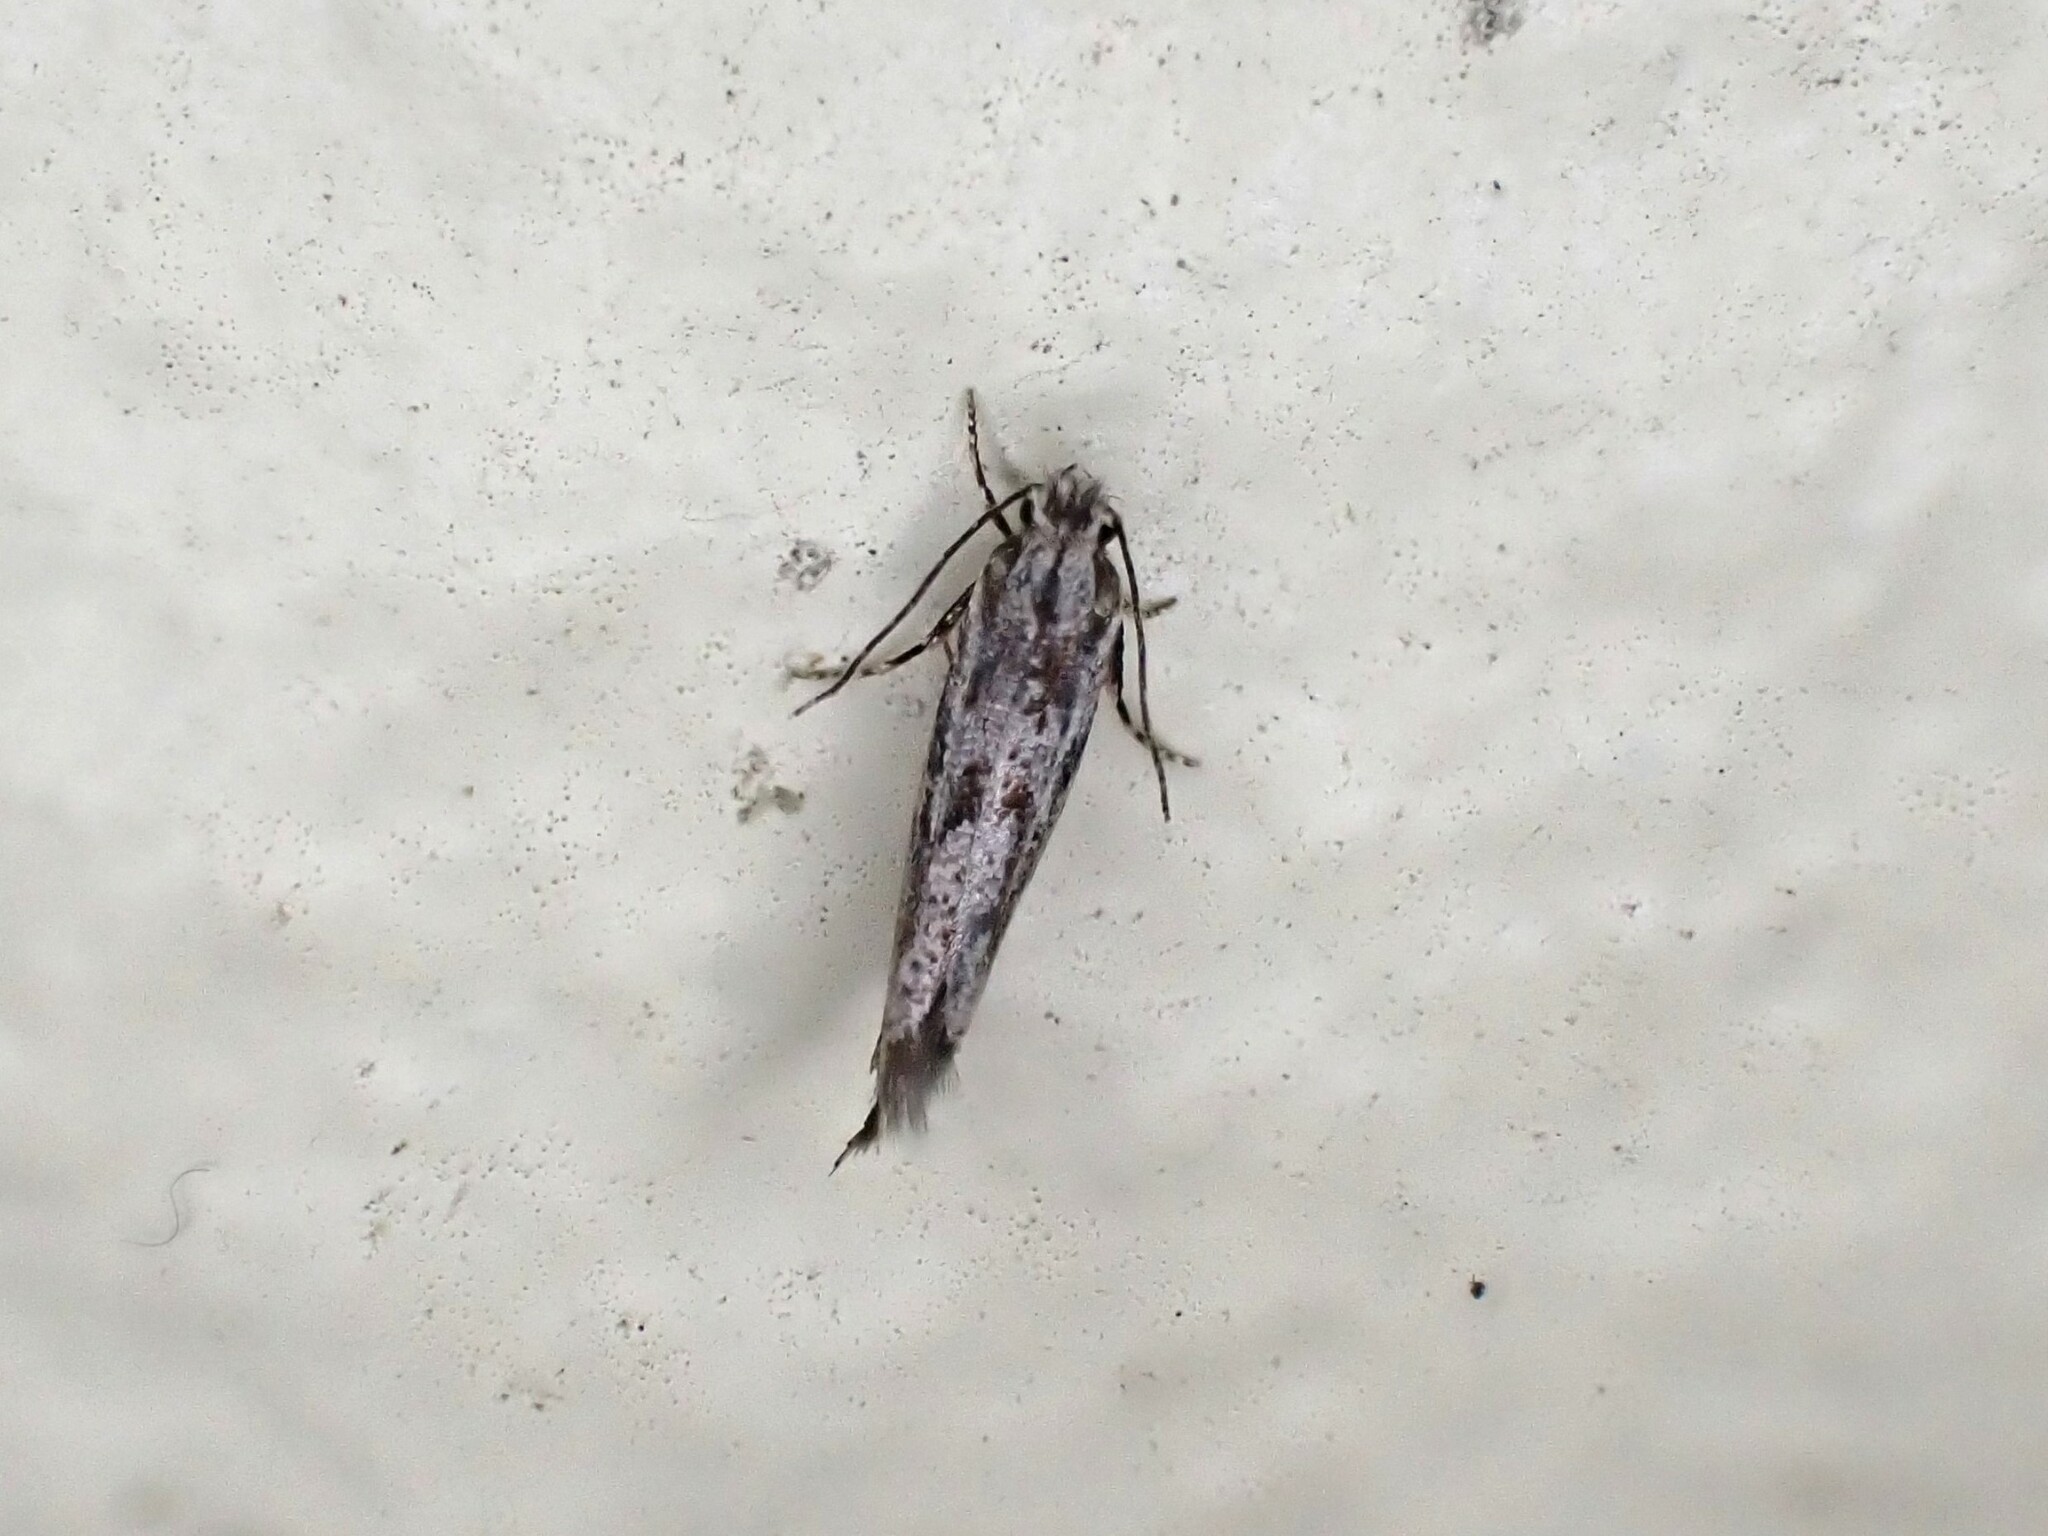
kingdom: Animalia
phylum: Arthropoda
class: Insecta
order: Lepidoptera
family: Tineidae
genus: Erechthias
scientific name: Erechthias crypsimima
